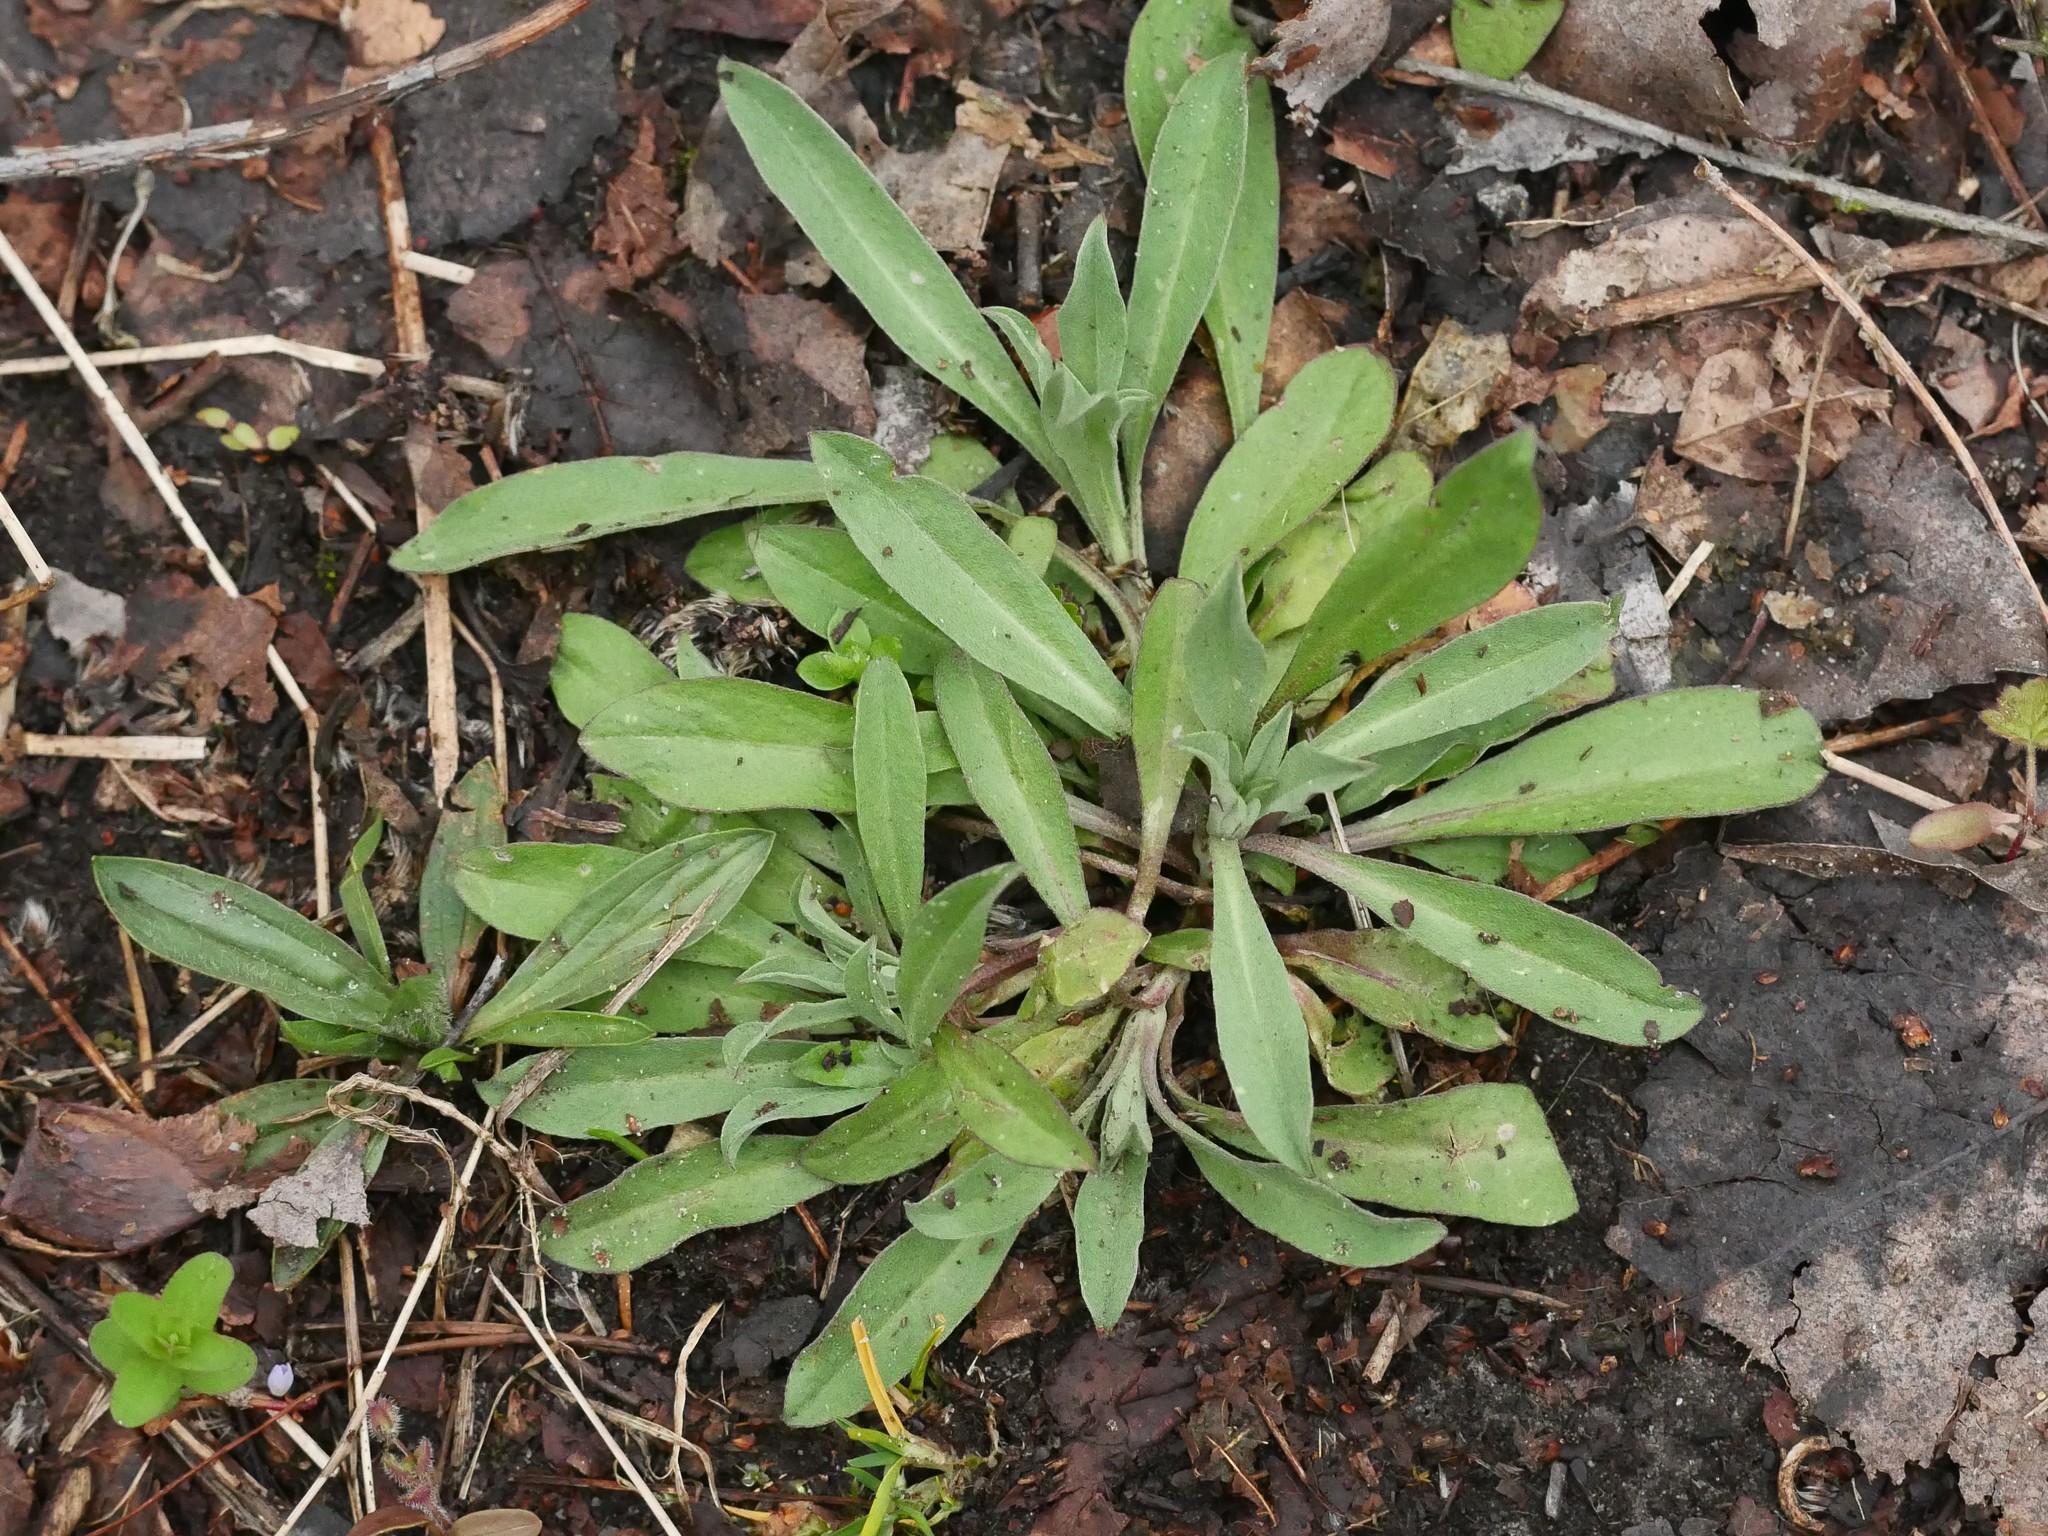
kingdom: Plantae
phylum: Tracheophyta
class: Magnoliopsida
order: Brassicales
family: Brassicaceae
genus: Berteroa
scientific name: Berteroa incana
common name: Hoary alison
